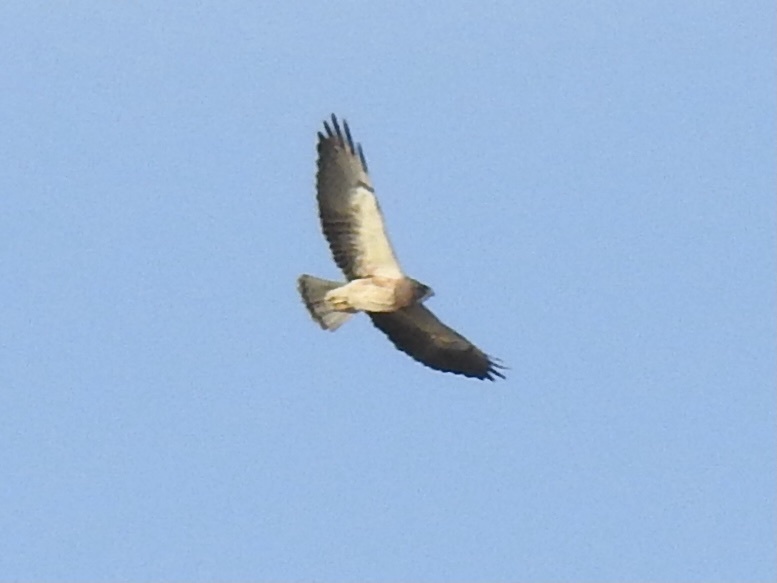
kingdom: Animalia
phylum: Chordata
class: Aves
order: Accipitriformes
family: Accipitridae
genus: Buteo
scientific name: Buteo swainsoni
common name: Swainson's hawk
